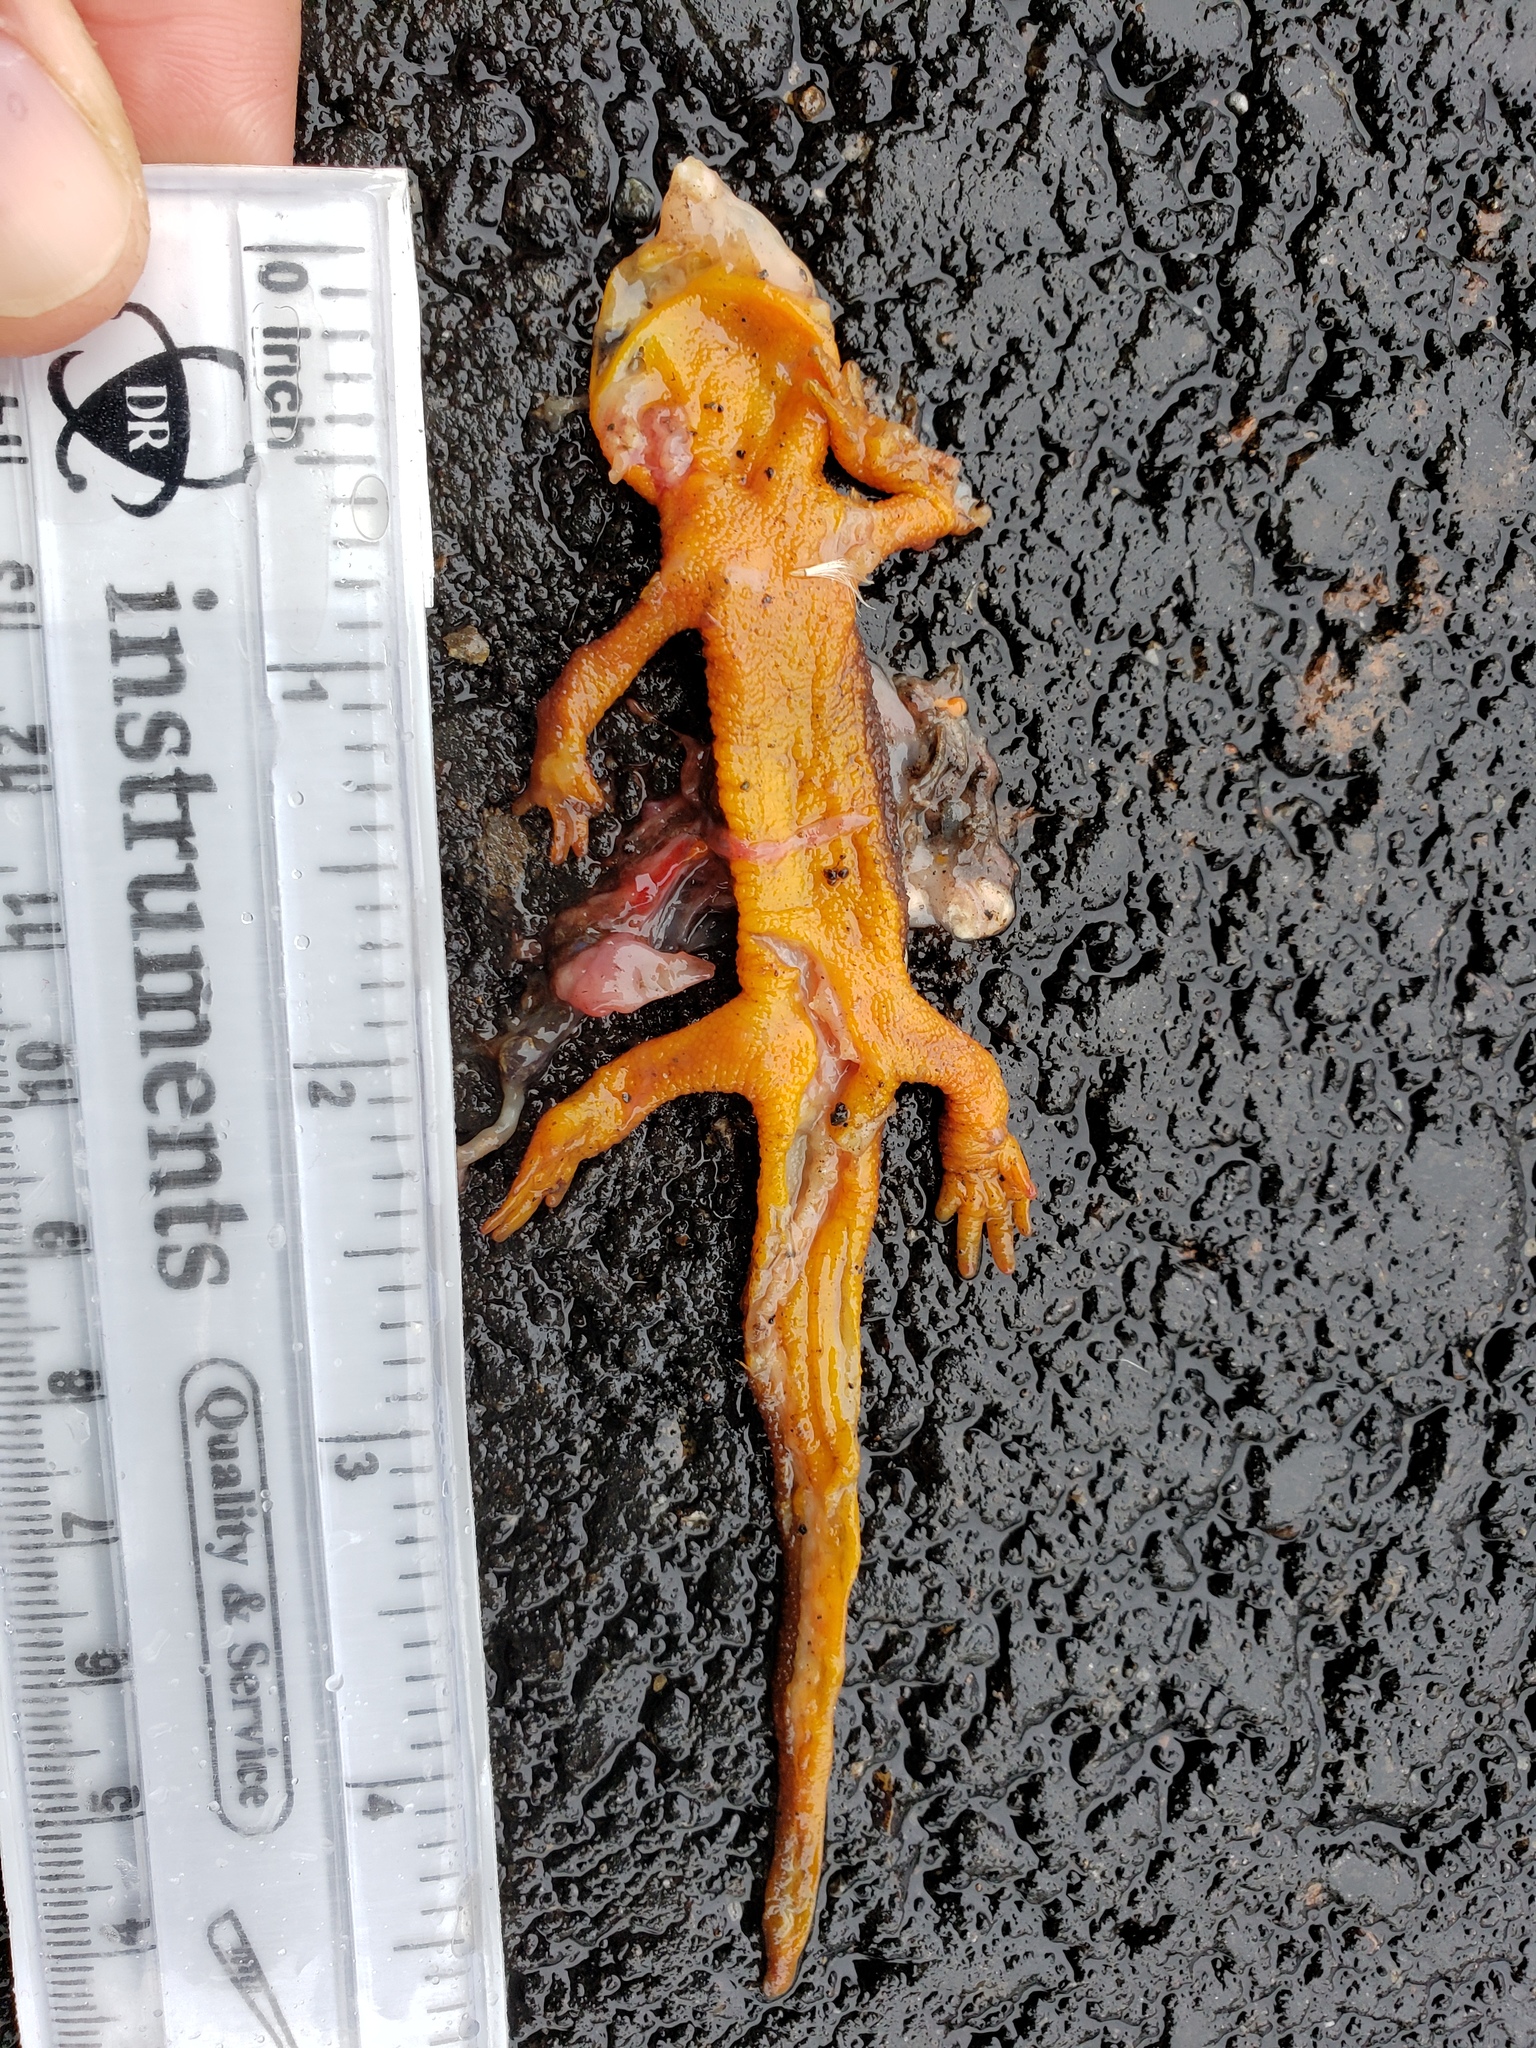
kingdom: Animalia
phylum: Chordata
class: Amphibia
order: Caudata
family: Salamandridae
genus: Taricha
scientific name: Taricha
